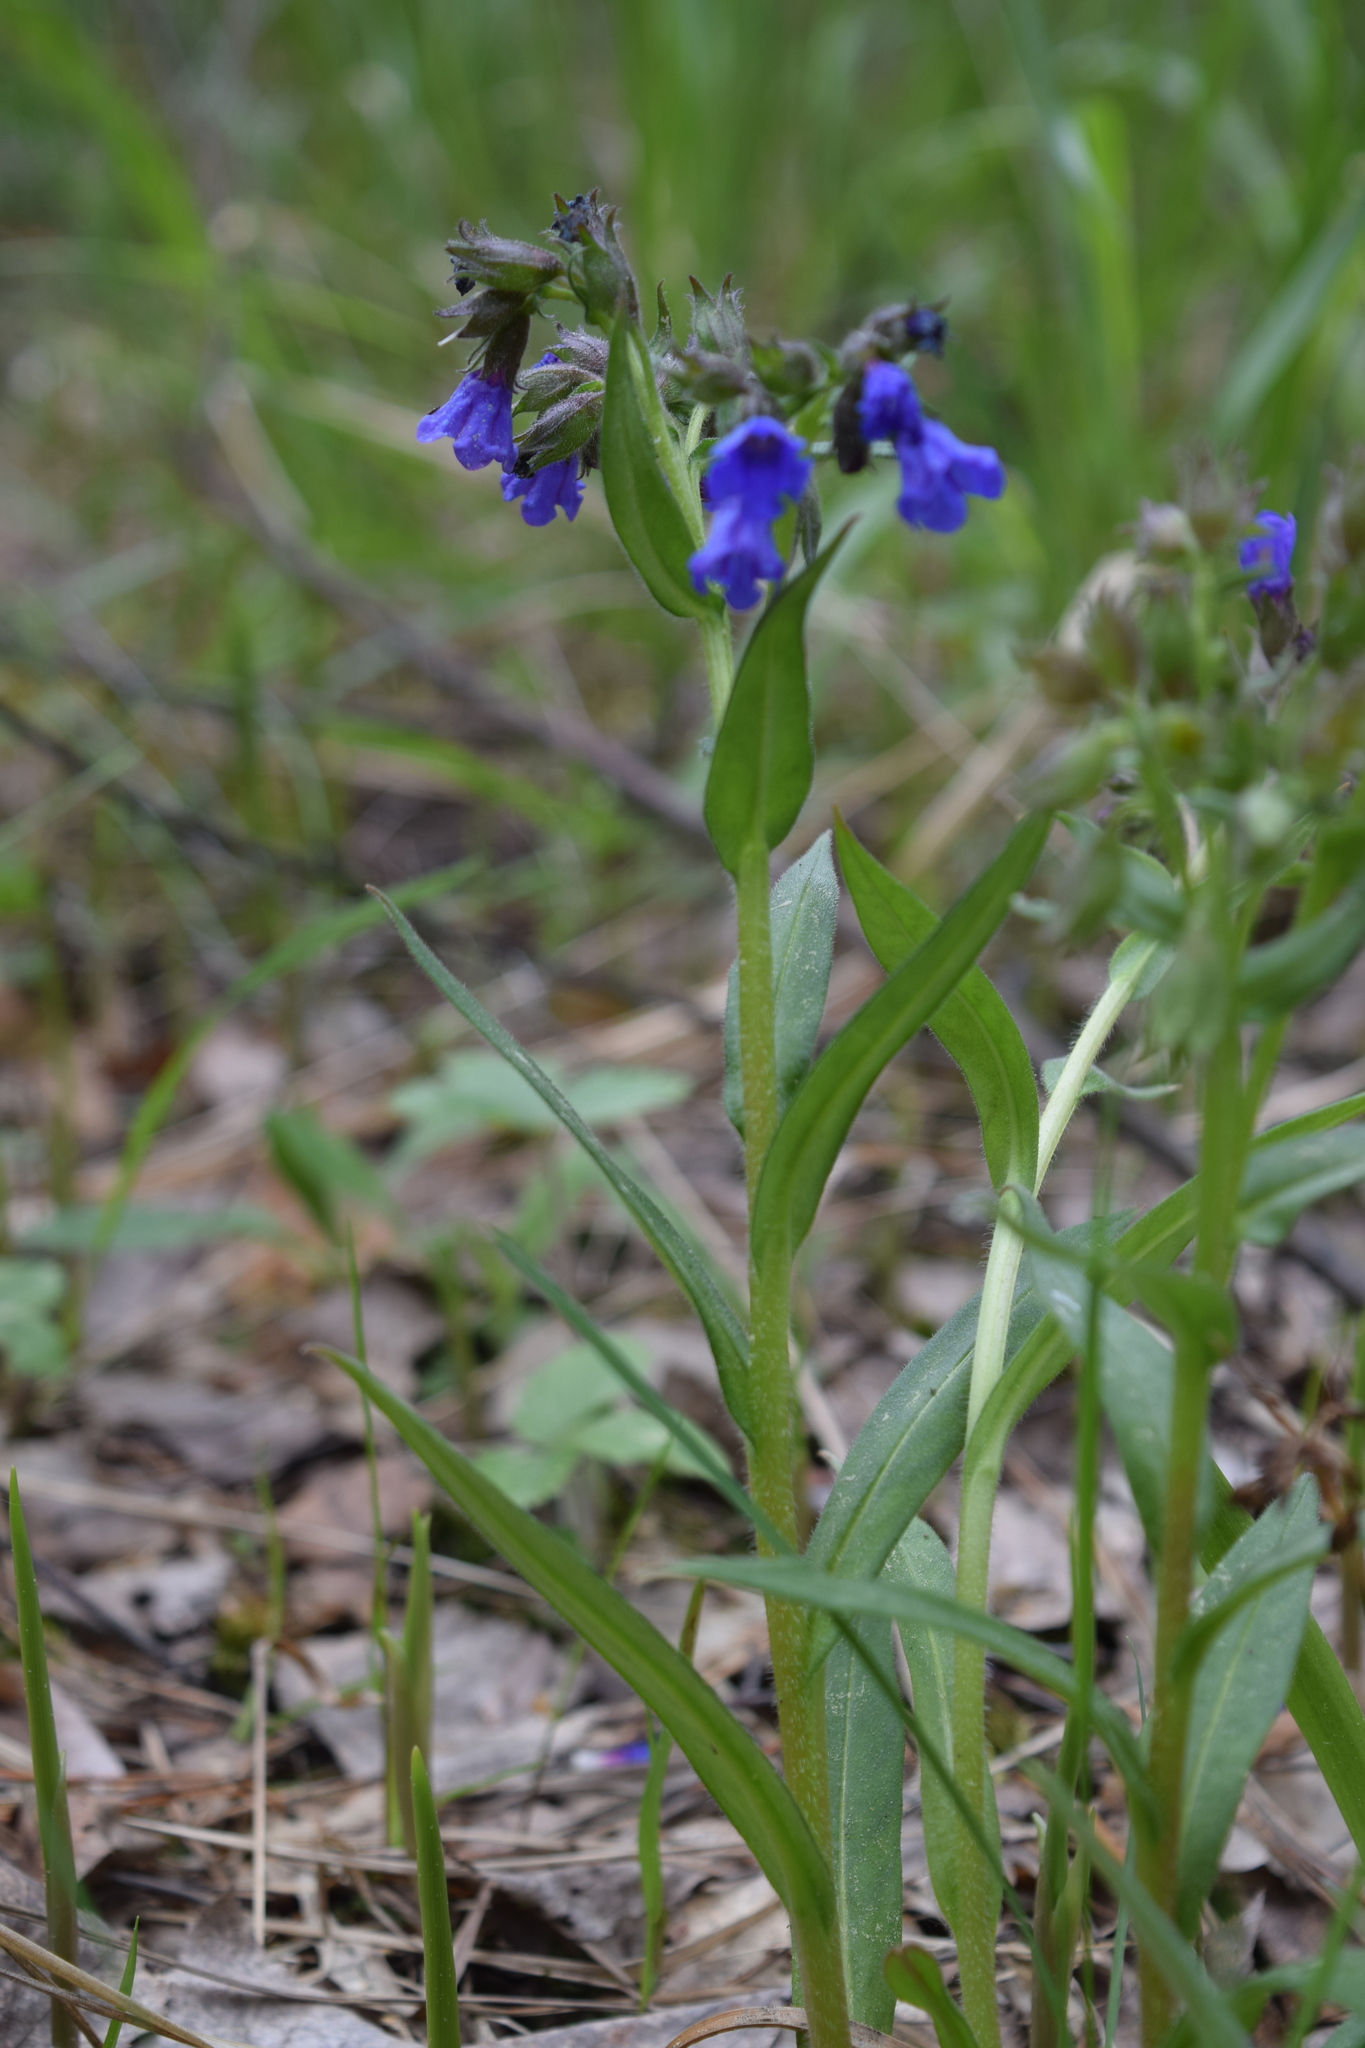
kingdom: Plantae
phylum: Tracheophyta
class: Magnoliopsida
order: Boraginales
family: Boraginaceae
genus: Pulmonaria
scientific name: Pulmonaria angustifolia
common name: Blue cowslip
